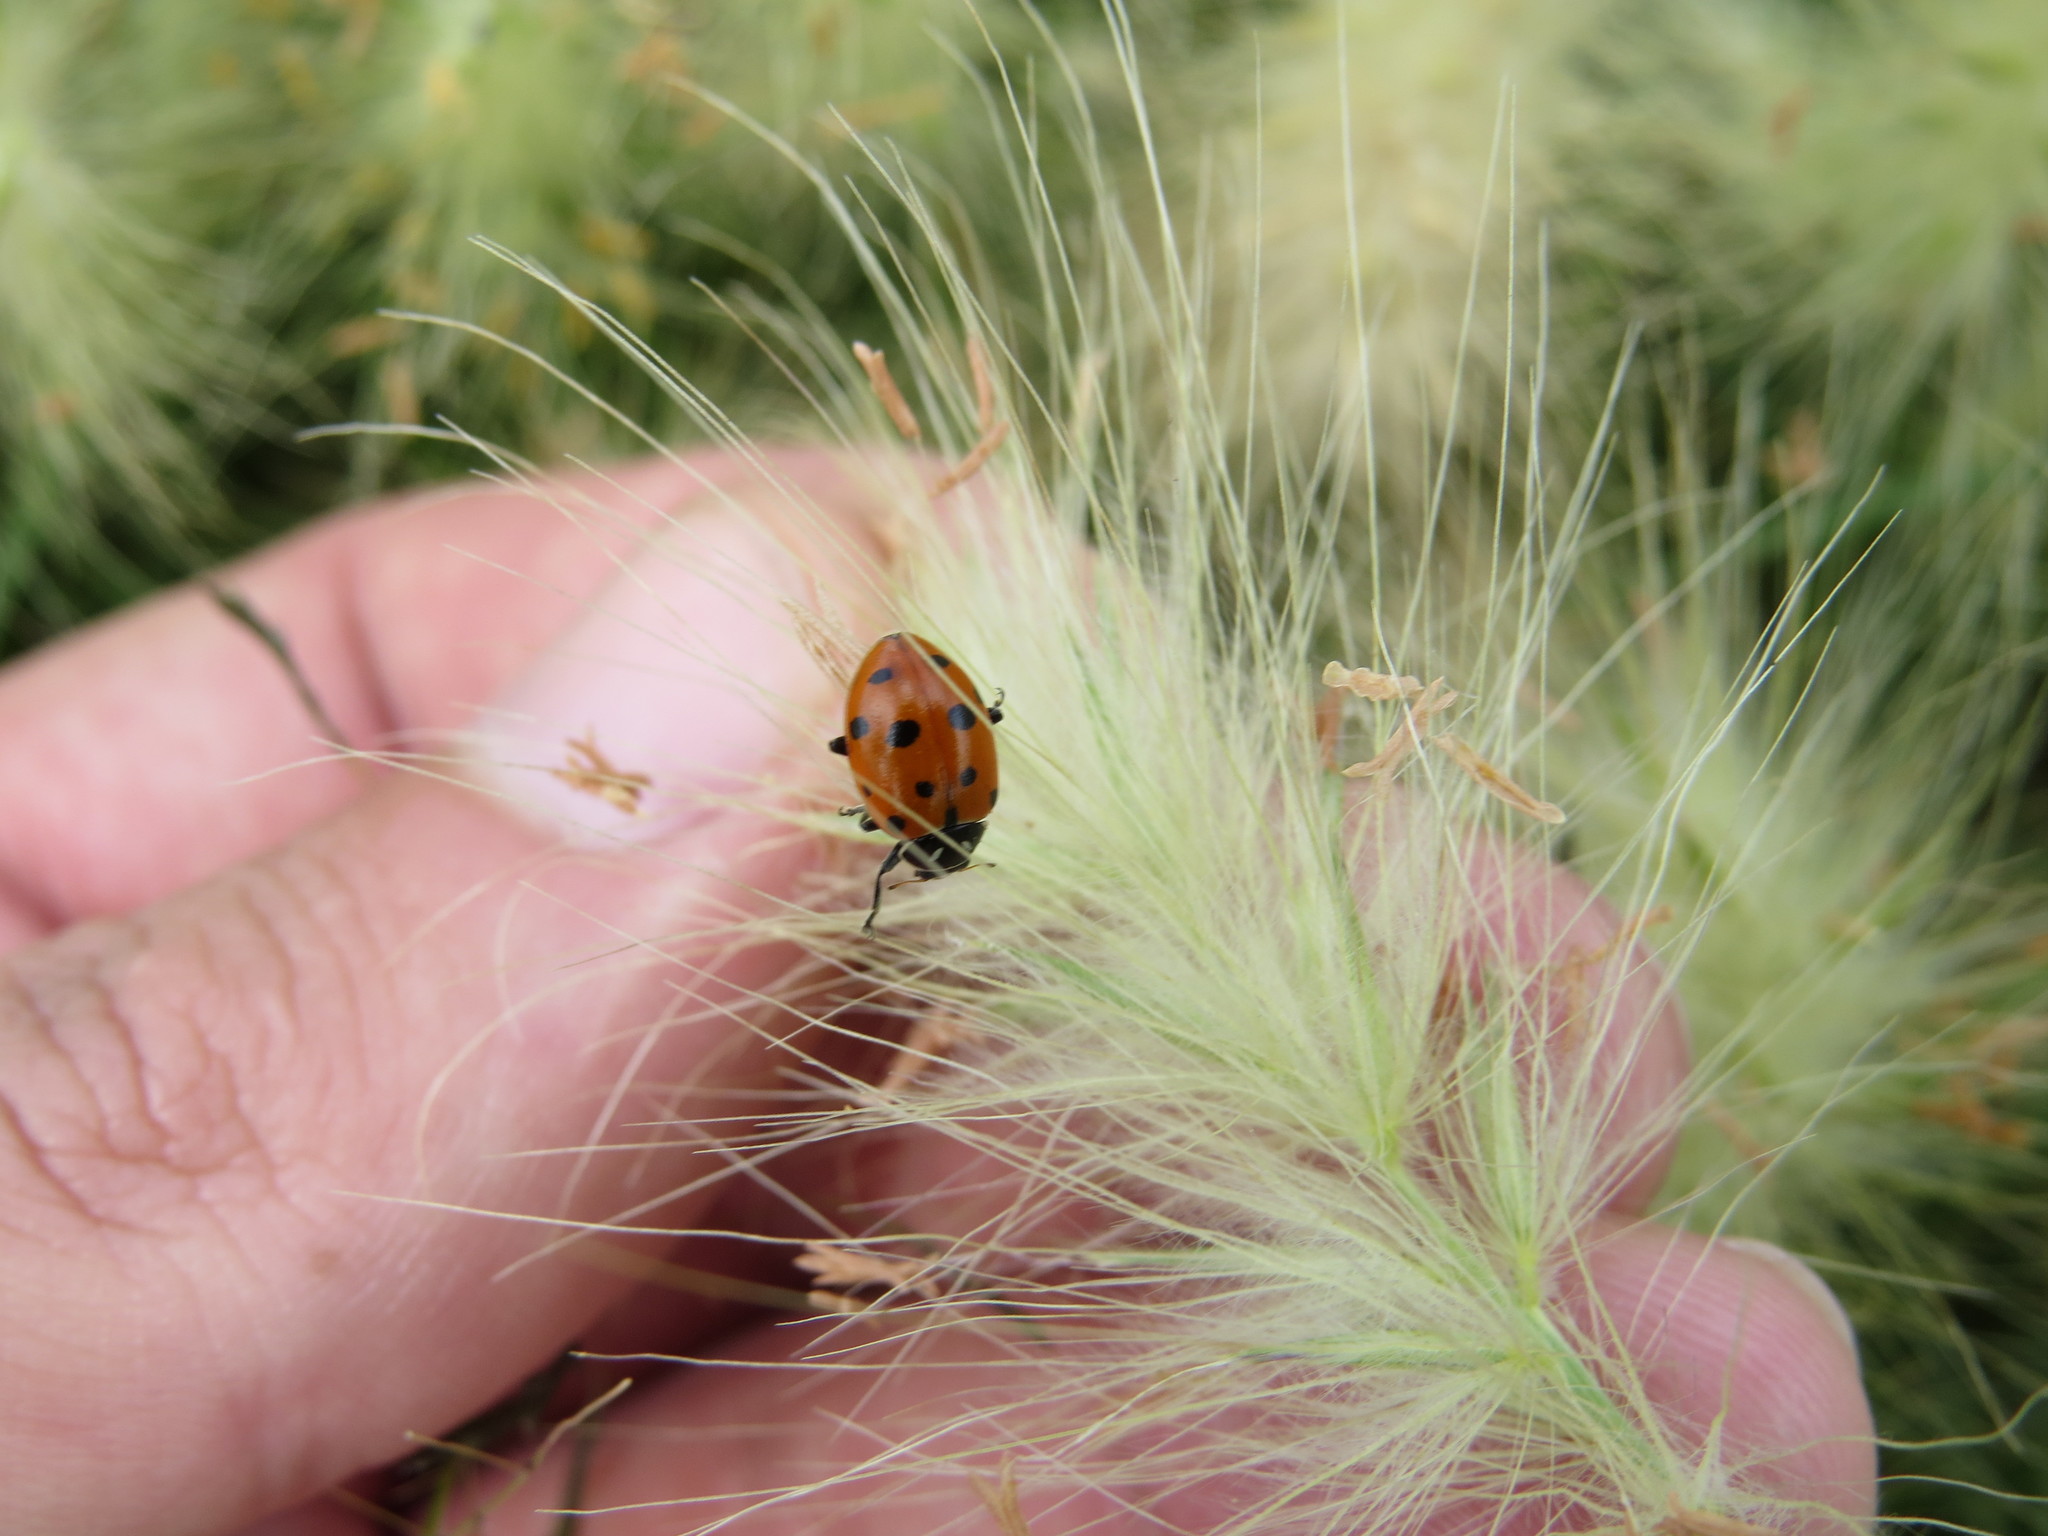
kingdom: Animalia
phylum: Arthropoda
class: Insecta
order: Coleoptera
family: Coccinellidae
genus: Hippodamia
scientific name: Hippodamia convergens
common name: Convergent lady beetle
